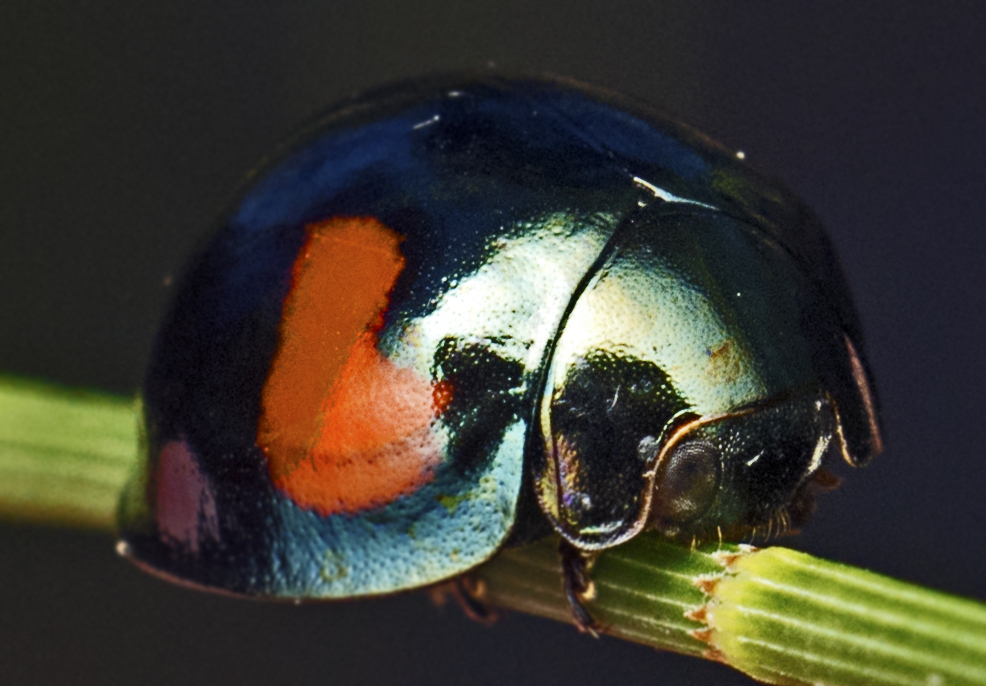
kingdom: Animalia
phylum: Arthropoda
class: Insecta
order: Coleoptera
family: Coccinellidae
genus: Orcus
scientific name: Orcus
